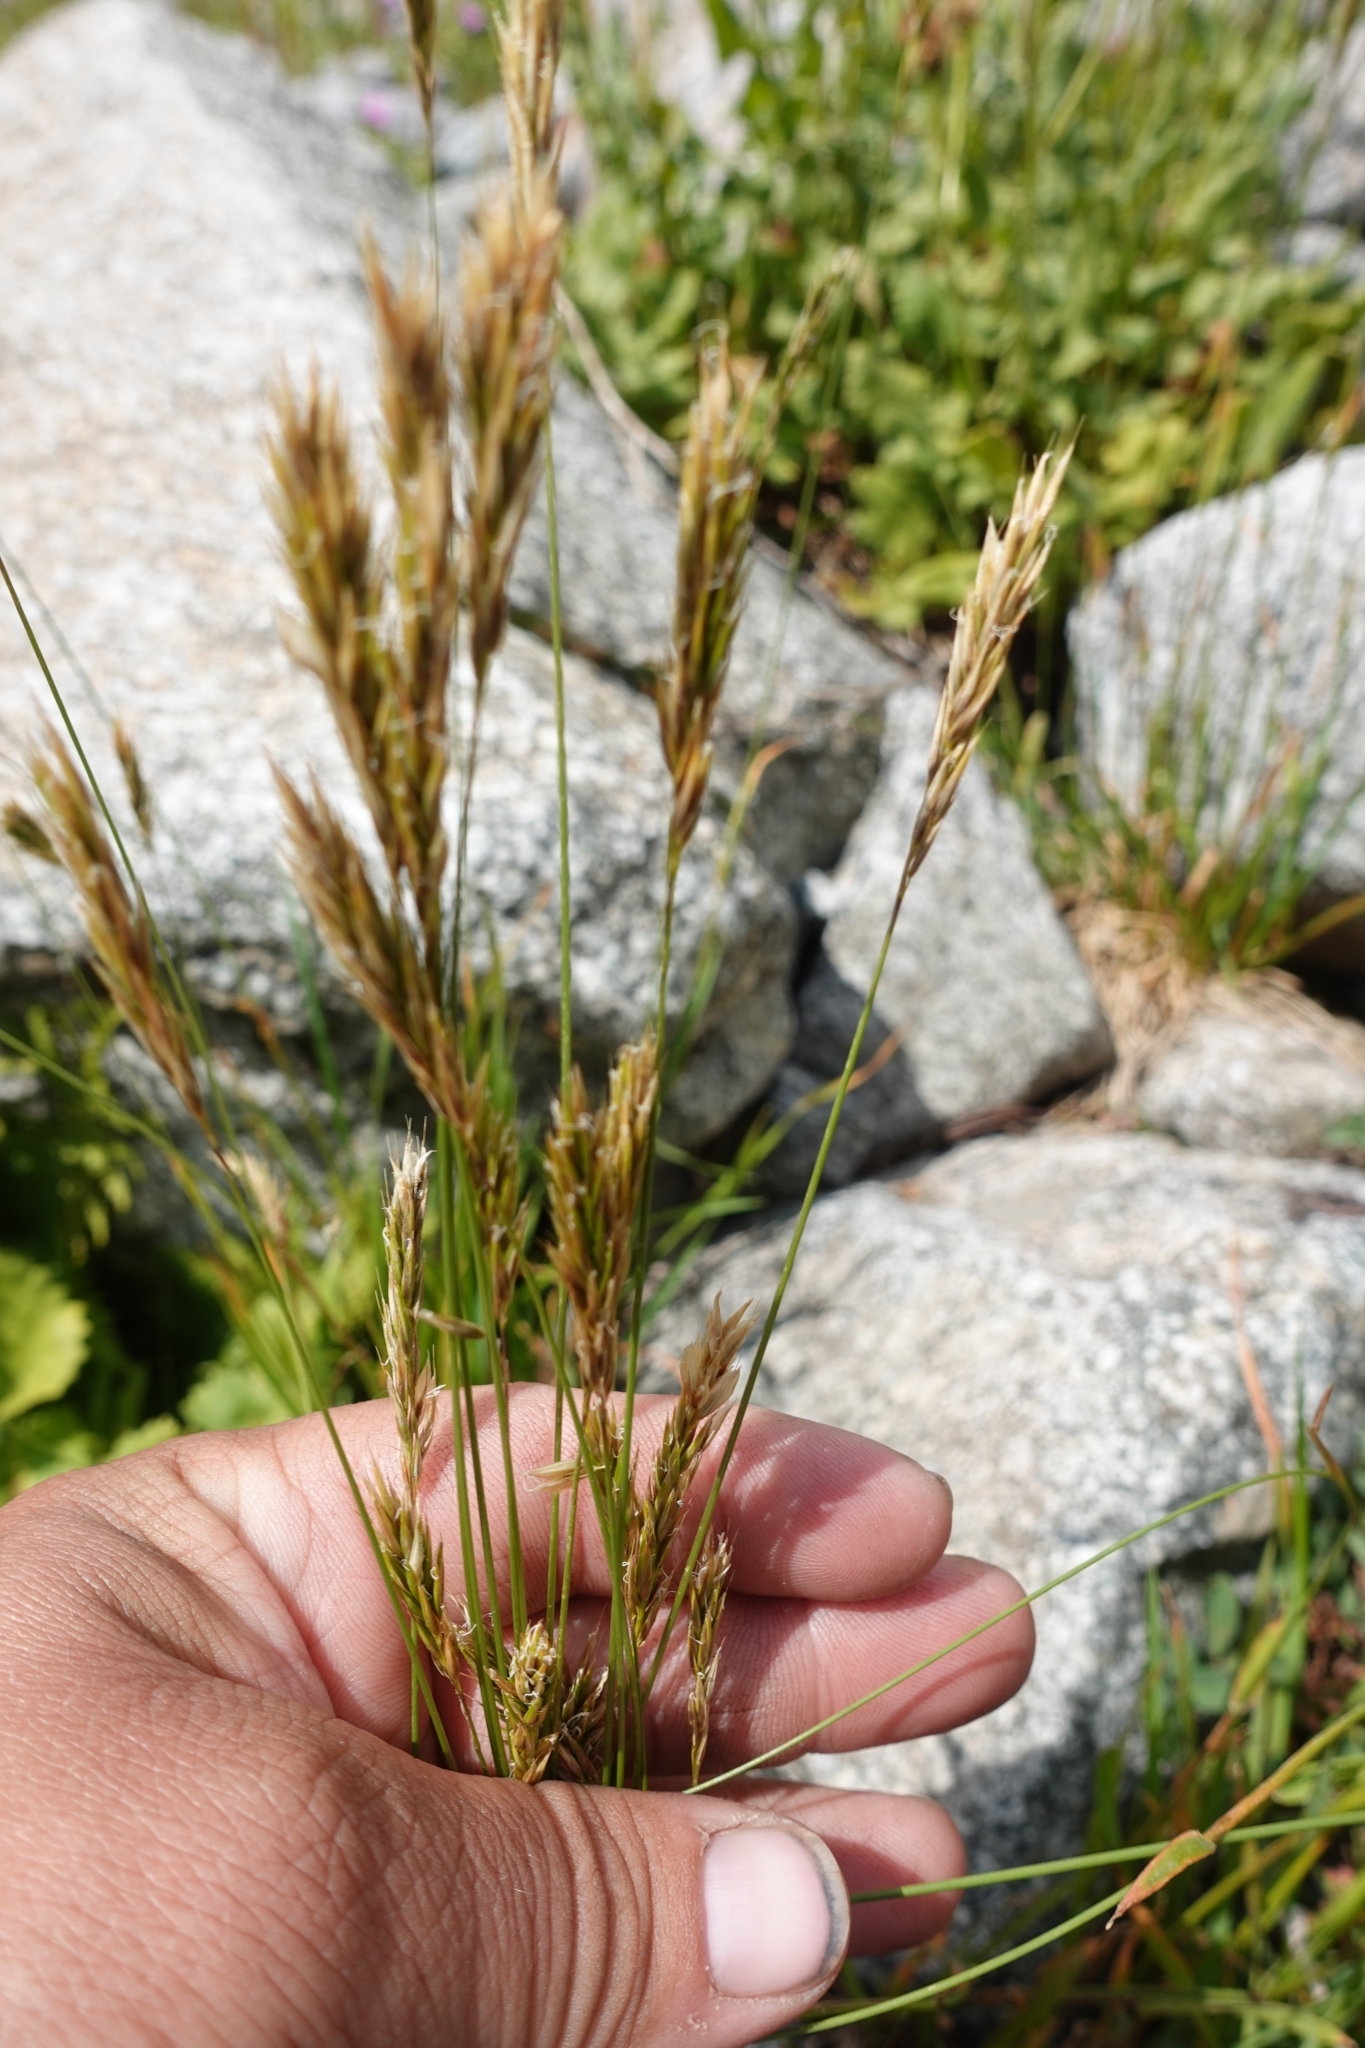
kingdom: Plantae
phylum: Tracheophyta
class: Liliopsida
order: Poales
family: Poaceae
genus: Anthoxanthum
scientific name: Anthoxanthum odoratum
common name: Sweet vernalgrass
